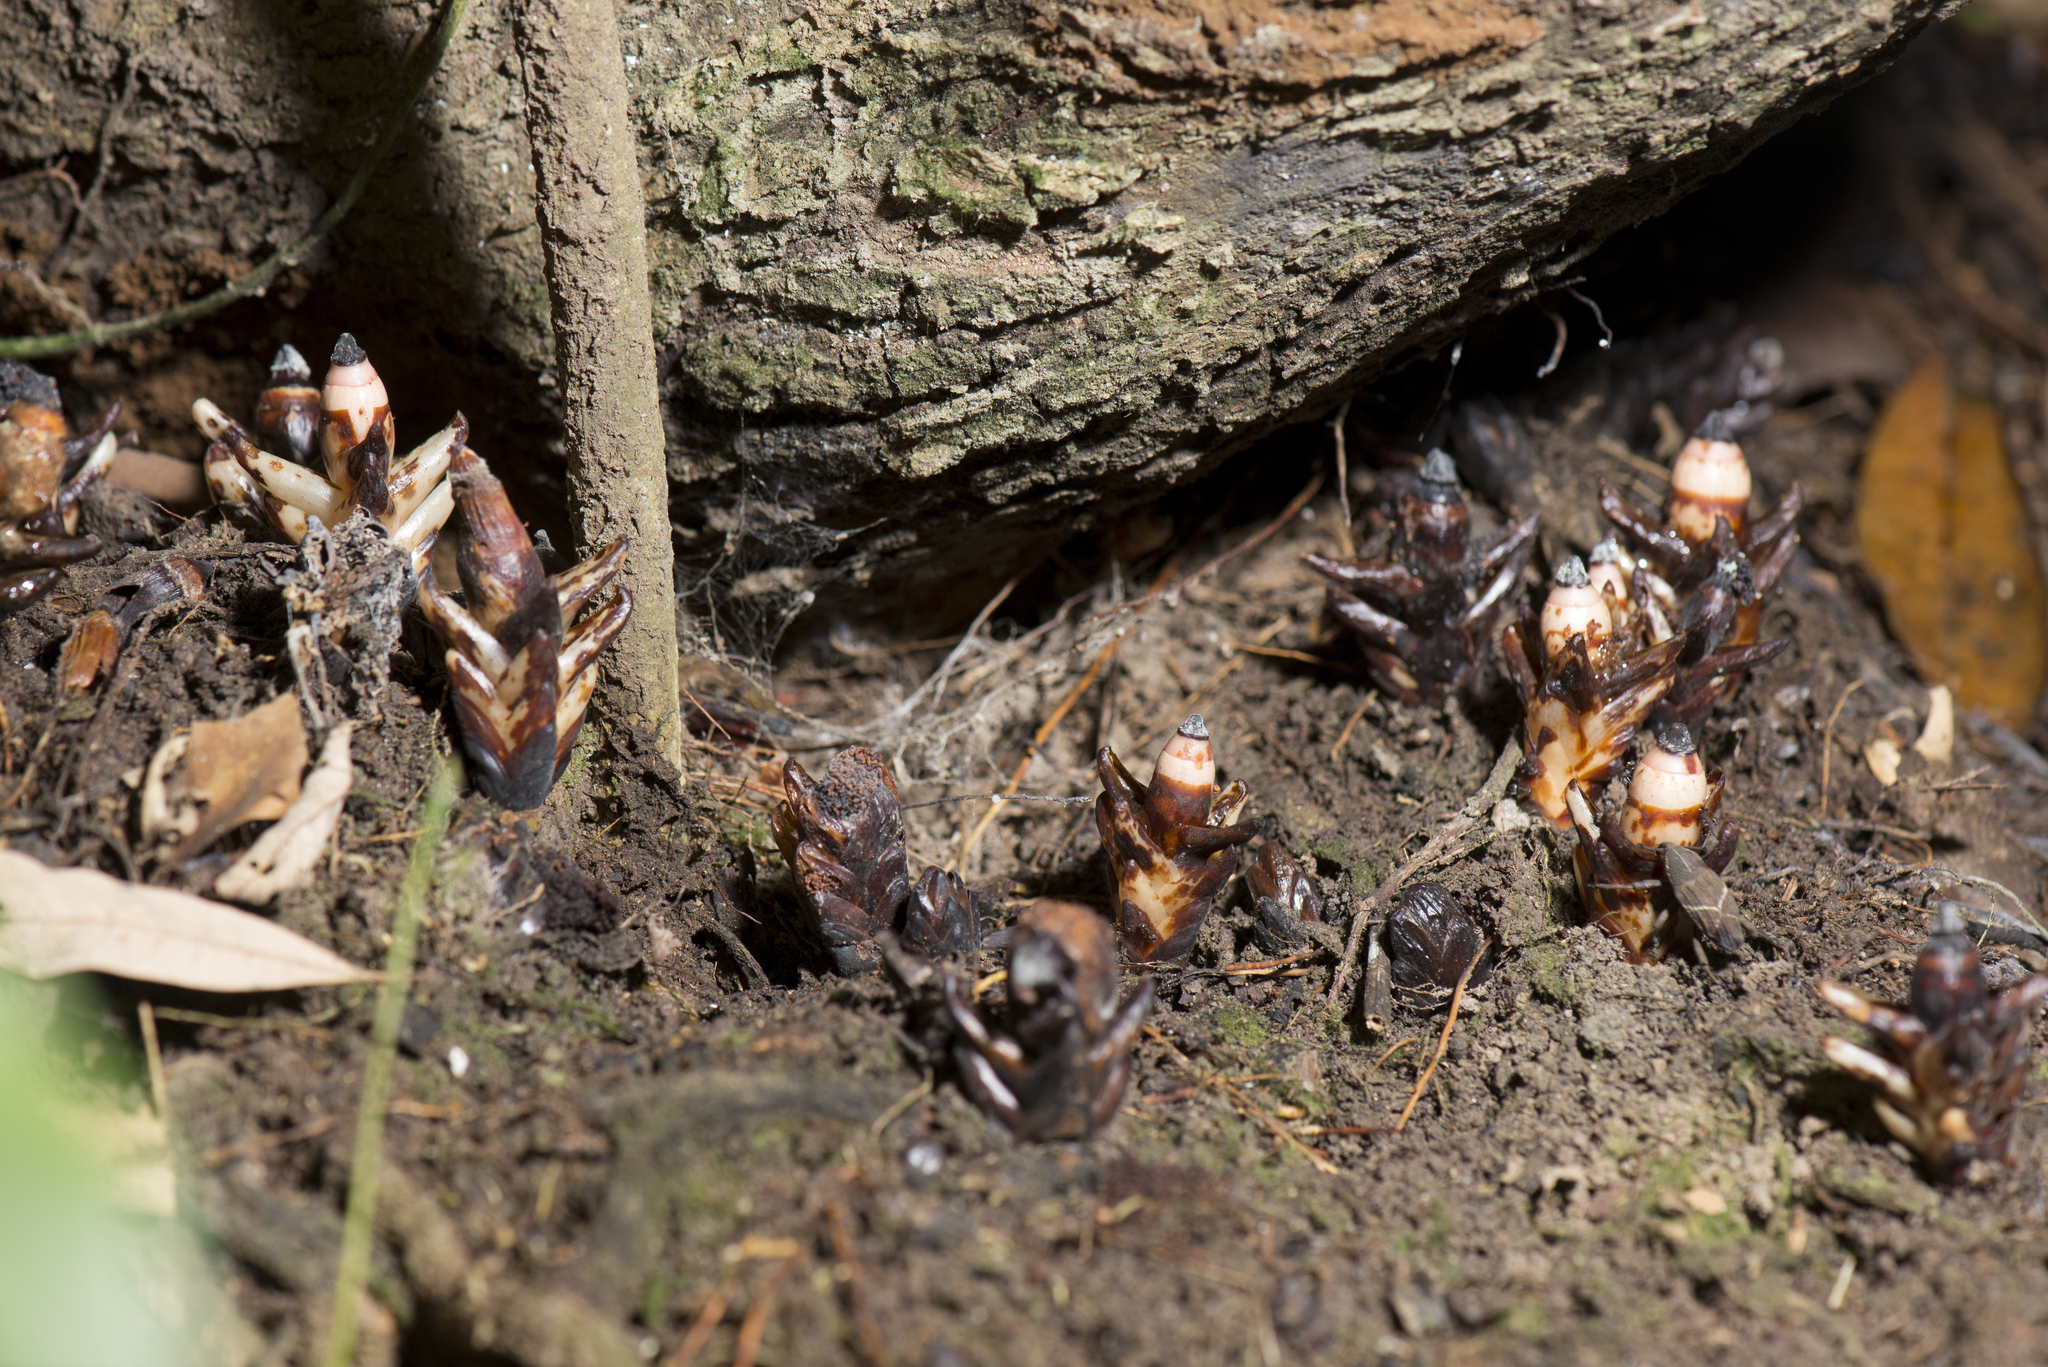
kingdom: Plantae
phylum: Tracheophyta
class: Magnoliopsida
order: Ericales
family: Mitrastemonaceae
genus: Mitrastemon
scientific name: Mitrastemon yamamotoi
